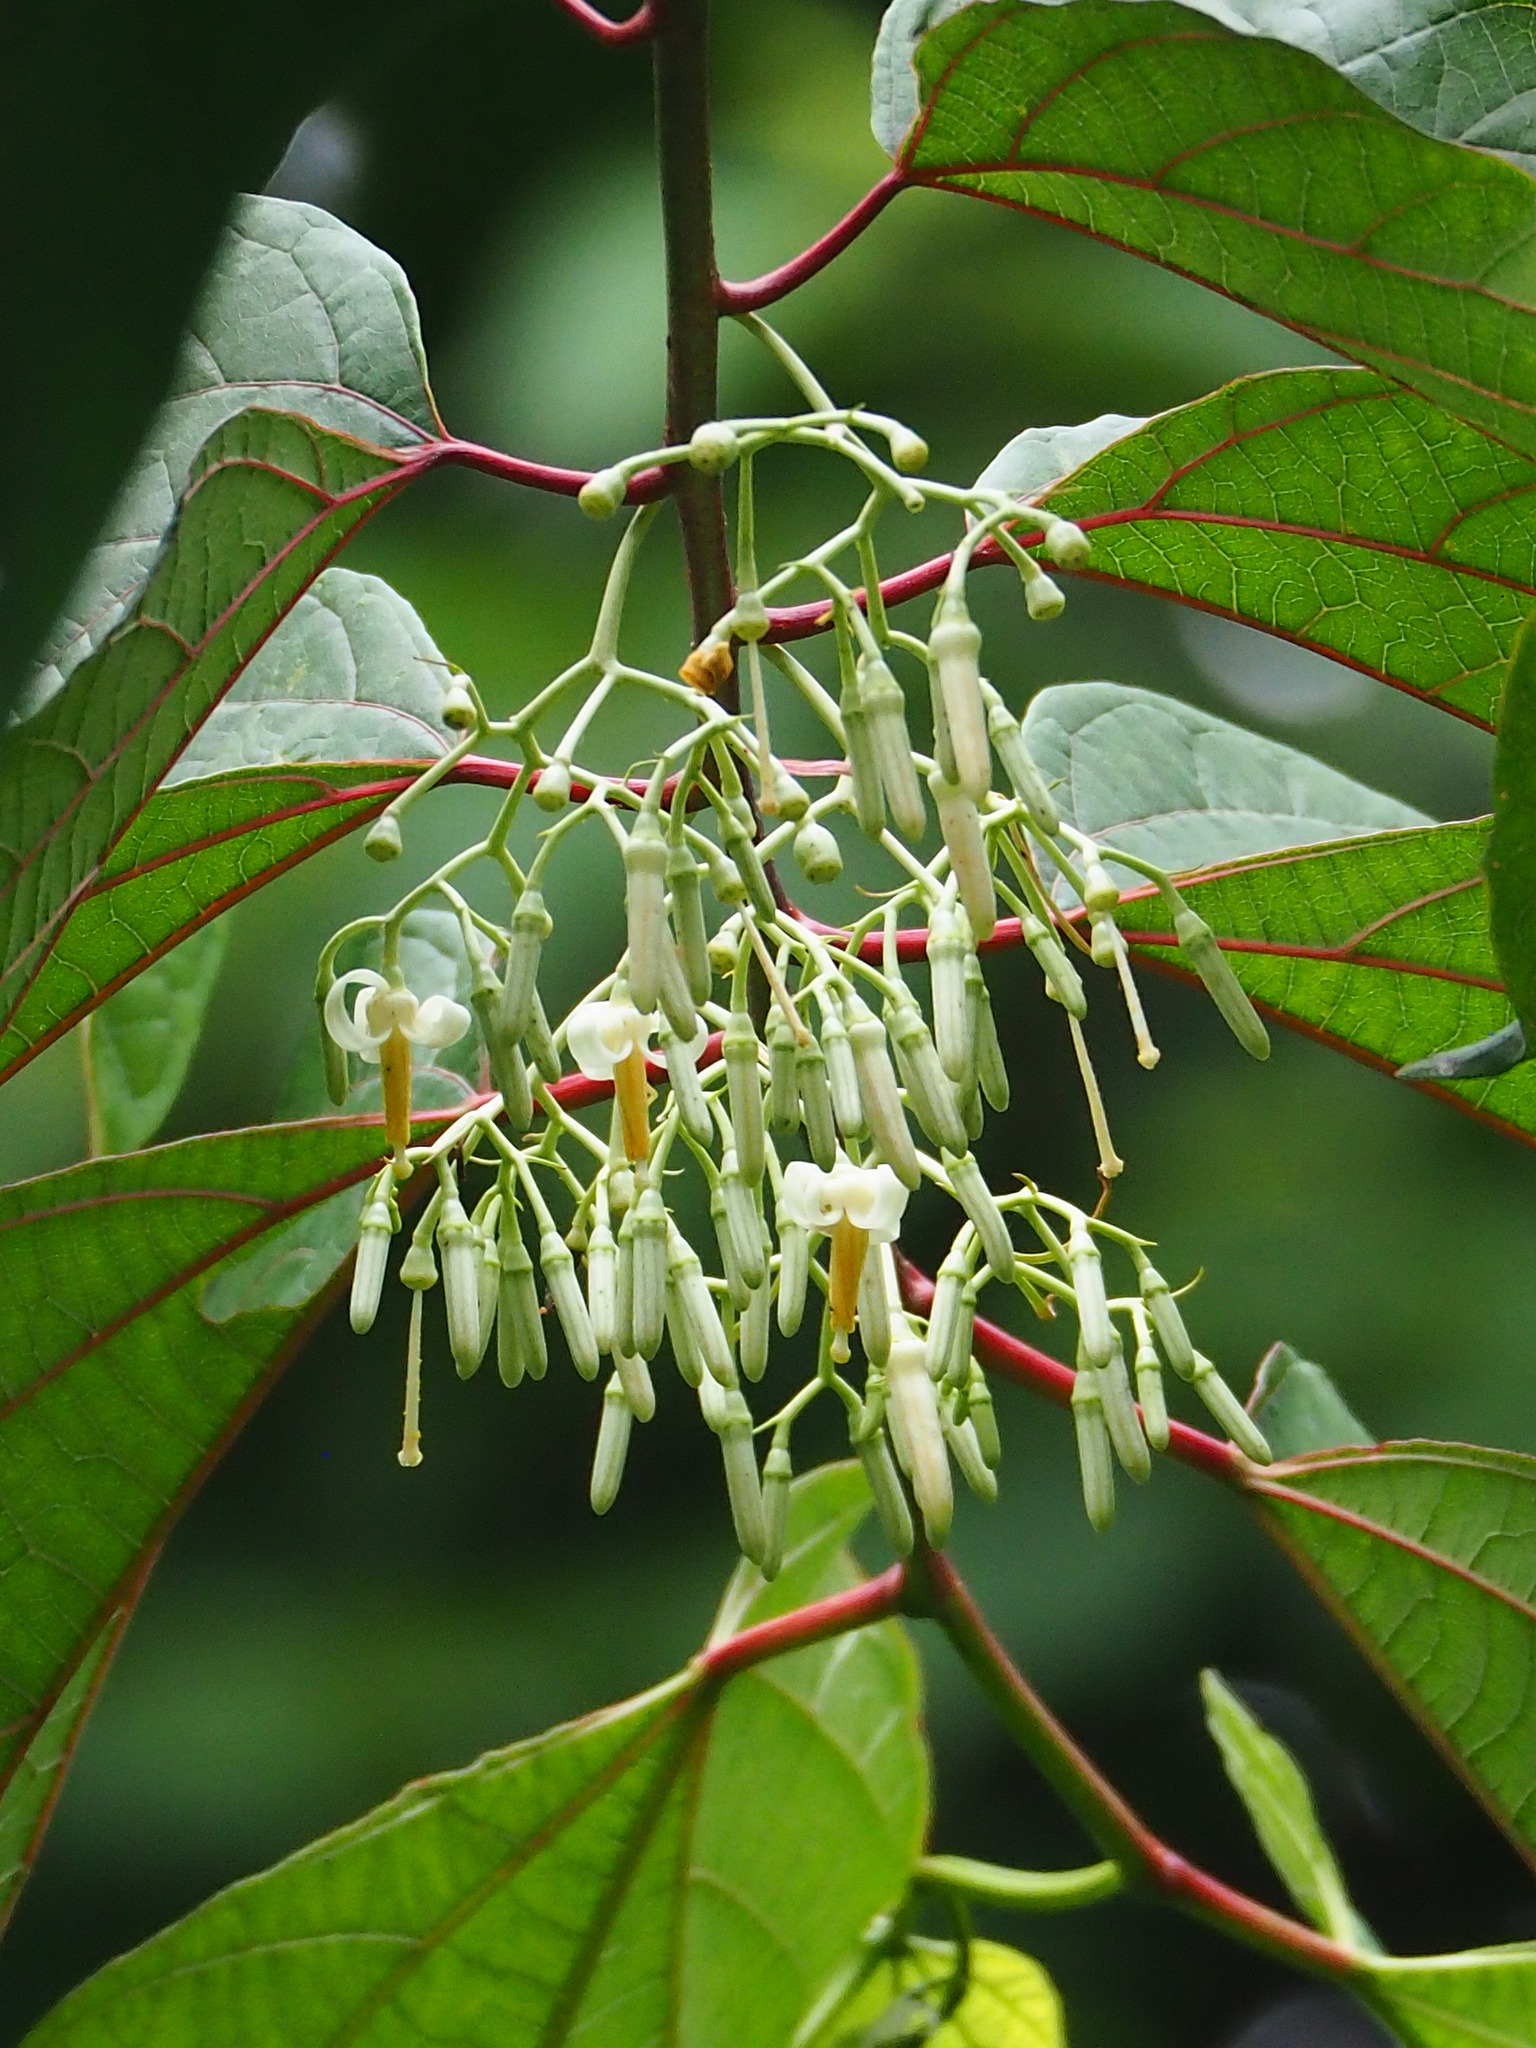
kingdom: Plantae
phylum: Tracheophyta
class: Magnoliopsida
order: Cornales
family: Cornaceae
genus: Alangium
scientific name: Alangium chinense
